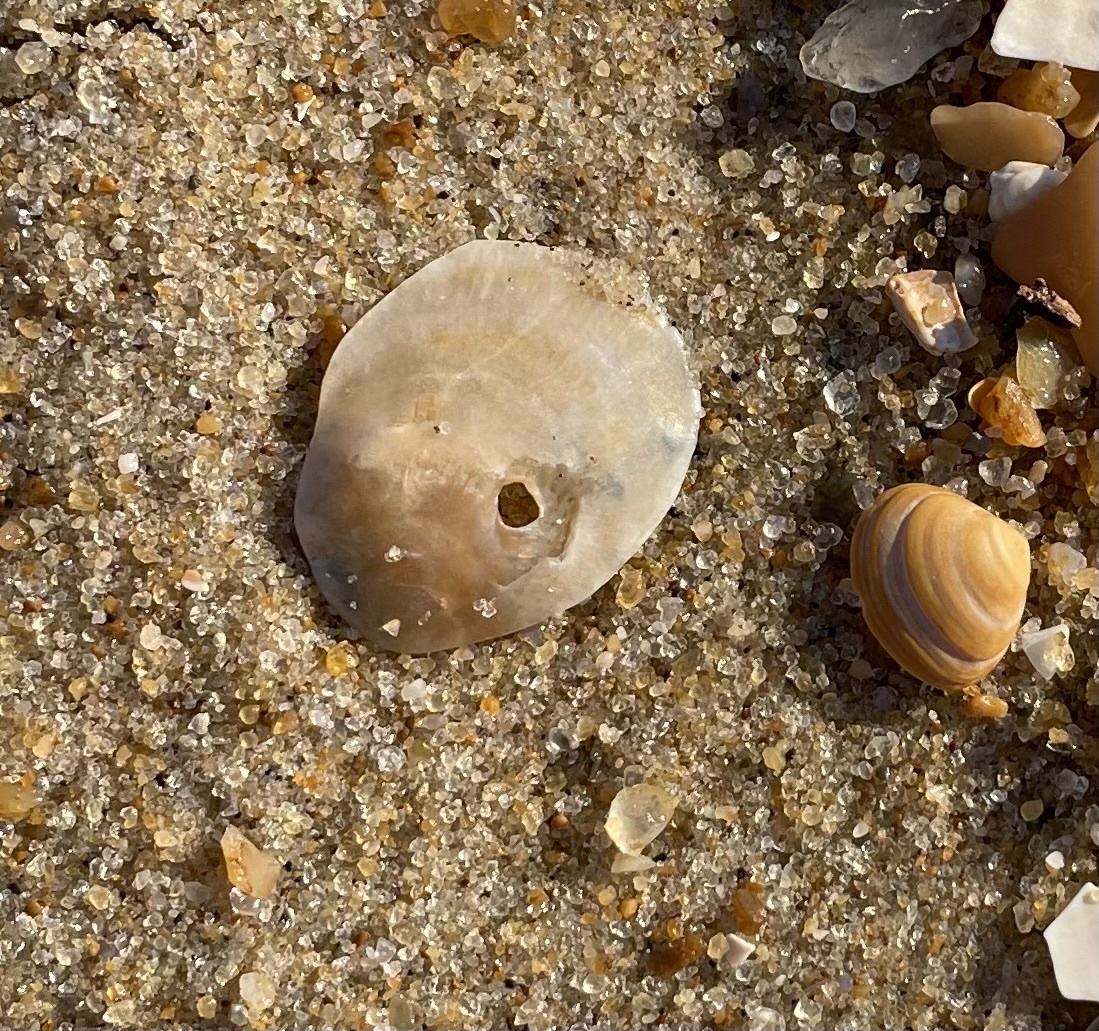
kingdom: Animalia
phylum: Mollusca
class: Bivalvia
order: Pectinida
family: Anomiidae
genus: Anomia
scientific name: Anomia simplex
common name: Common jingle shell
